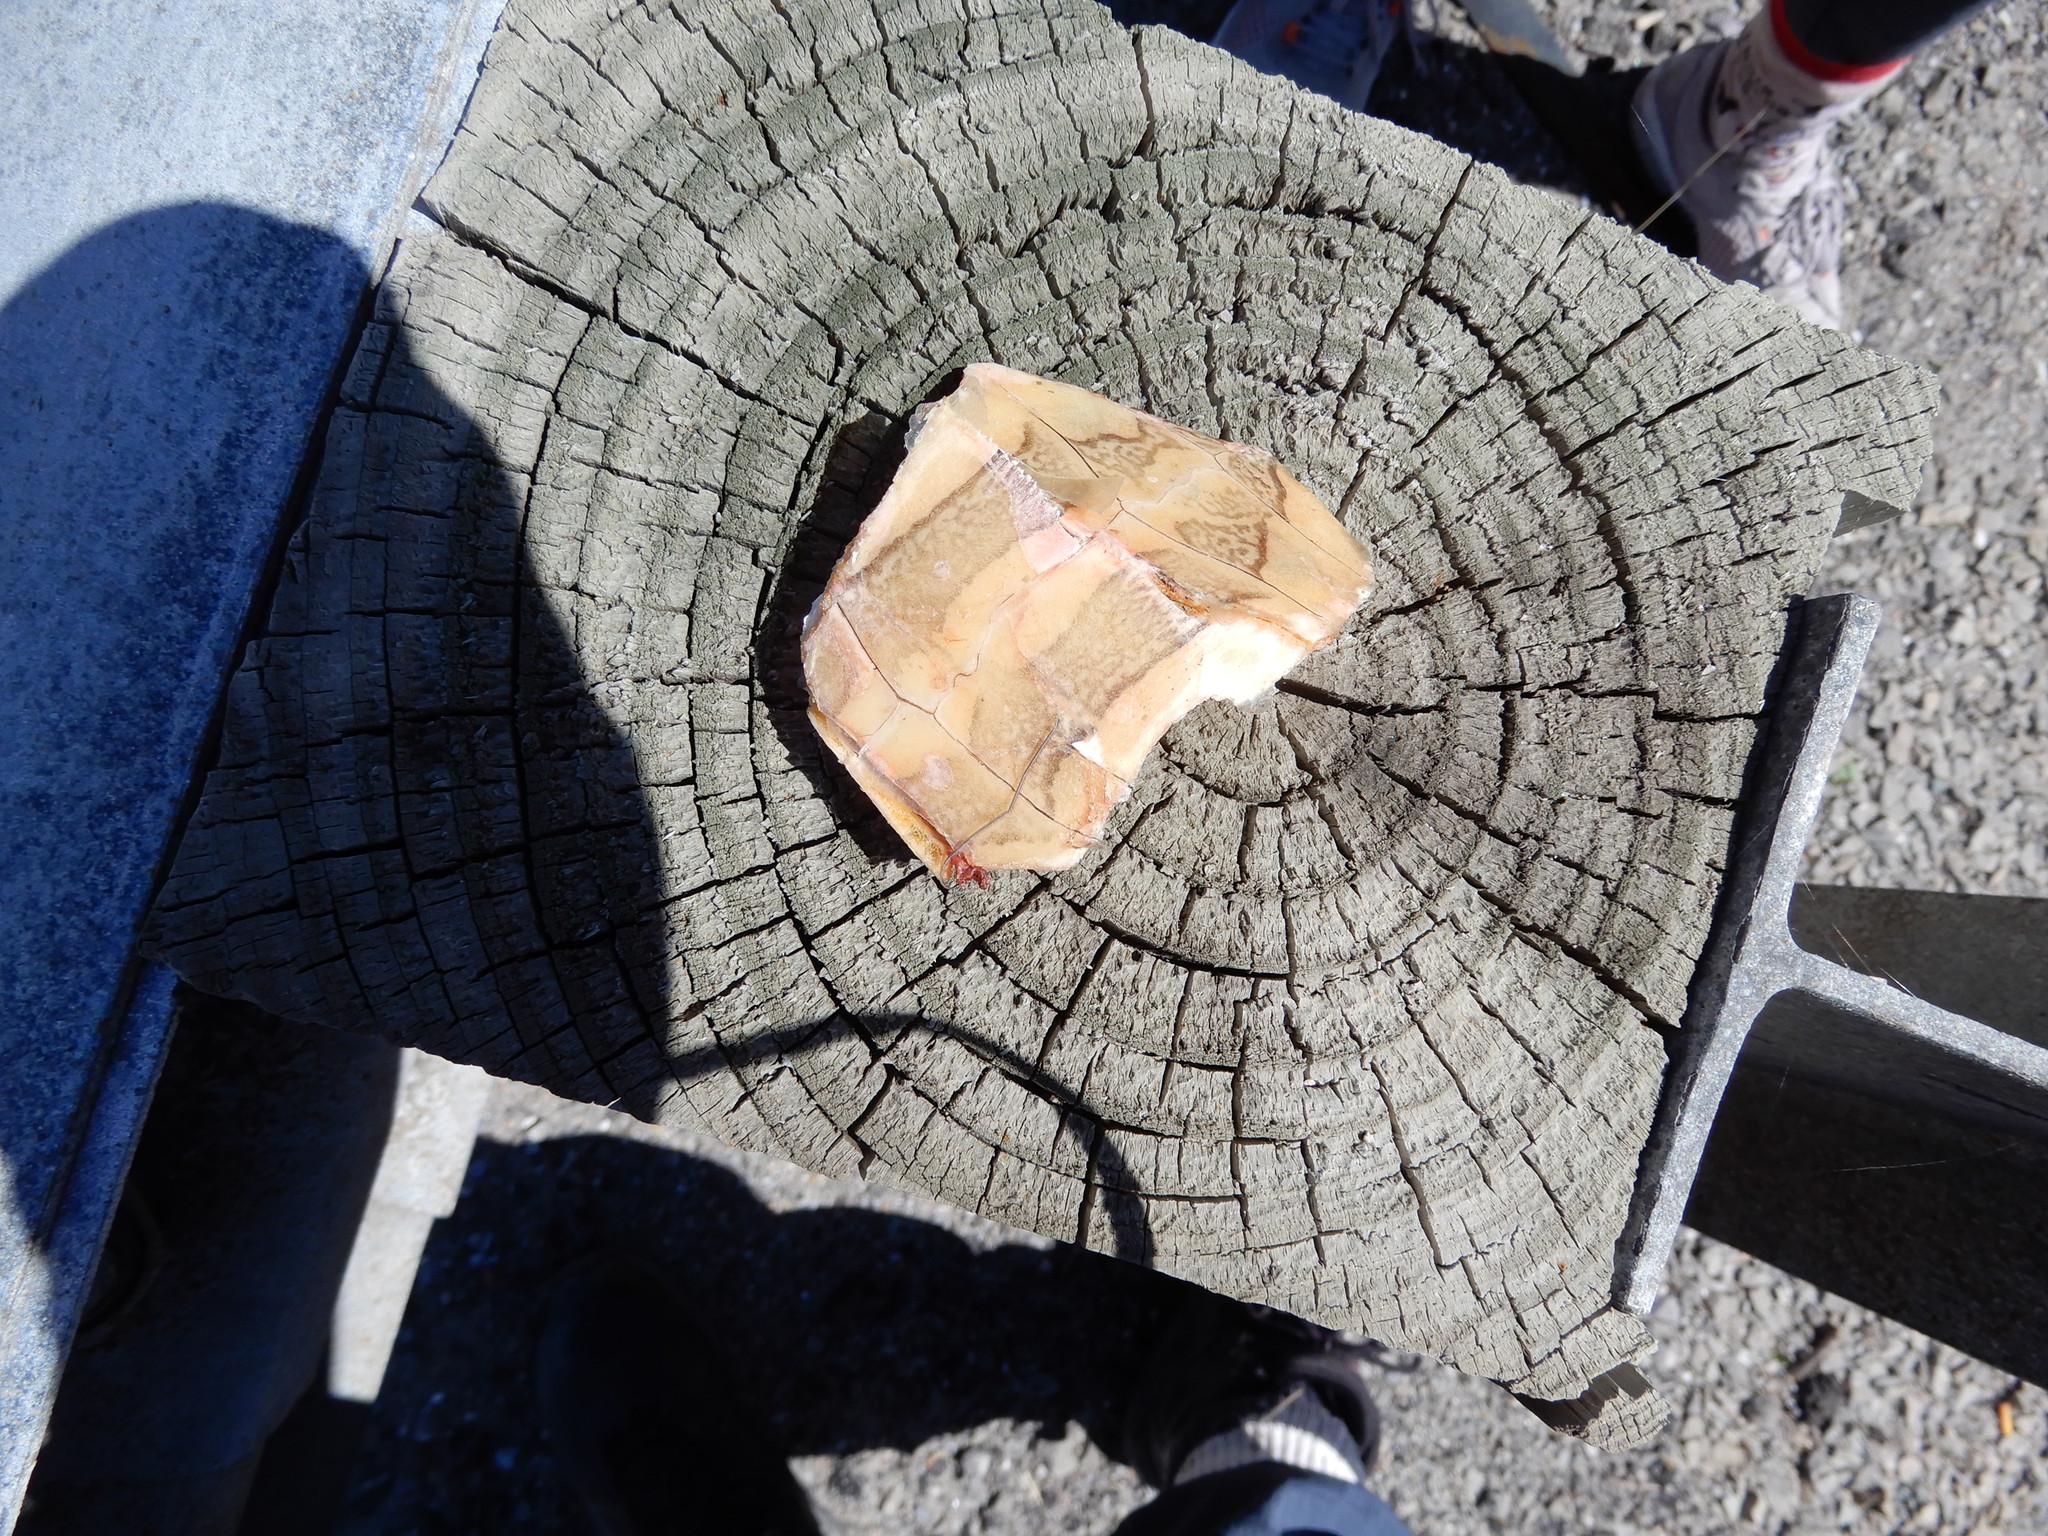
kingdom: Animalia
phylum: Chordata
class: Testudines
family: Emydidae
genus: Chrysemys
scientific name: Chrysemys picta
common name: Painted turtle
